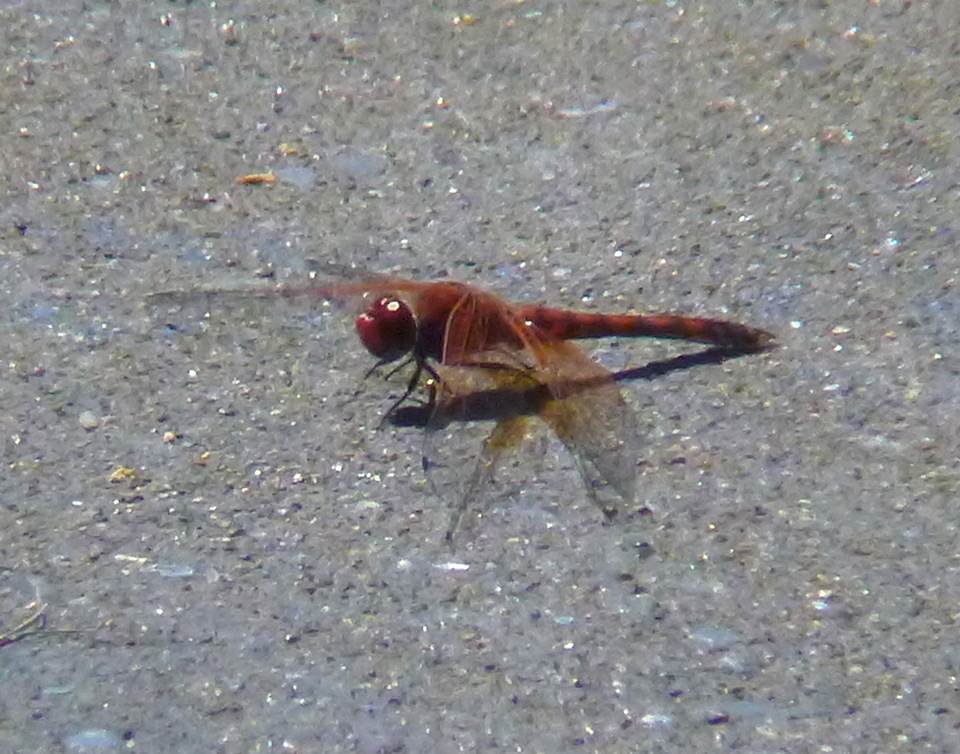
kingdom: Animalia
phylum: Arthropoda
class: Insecta
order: Odonata
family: Libellulidae
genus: Paltothemis
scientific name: Paltothemis lineatipes
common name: Red rock skimmer
